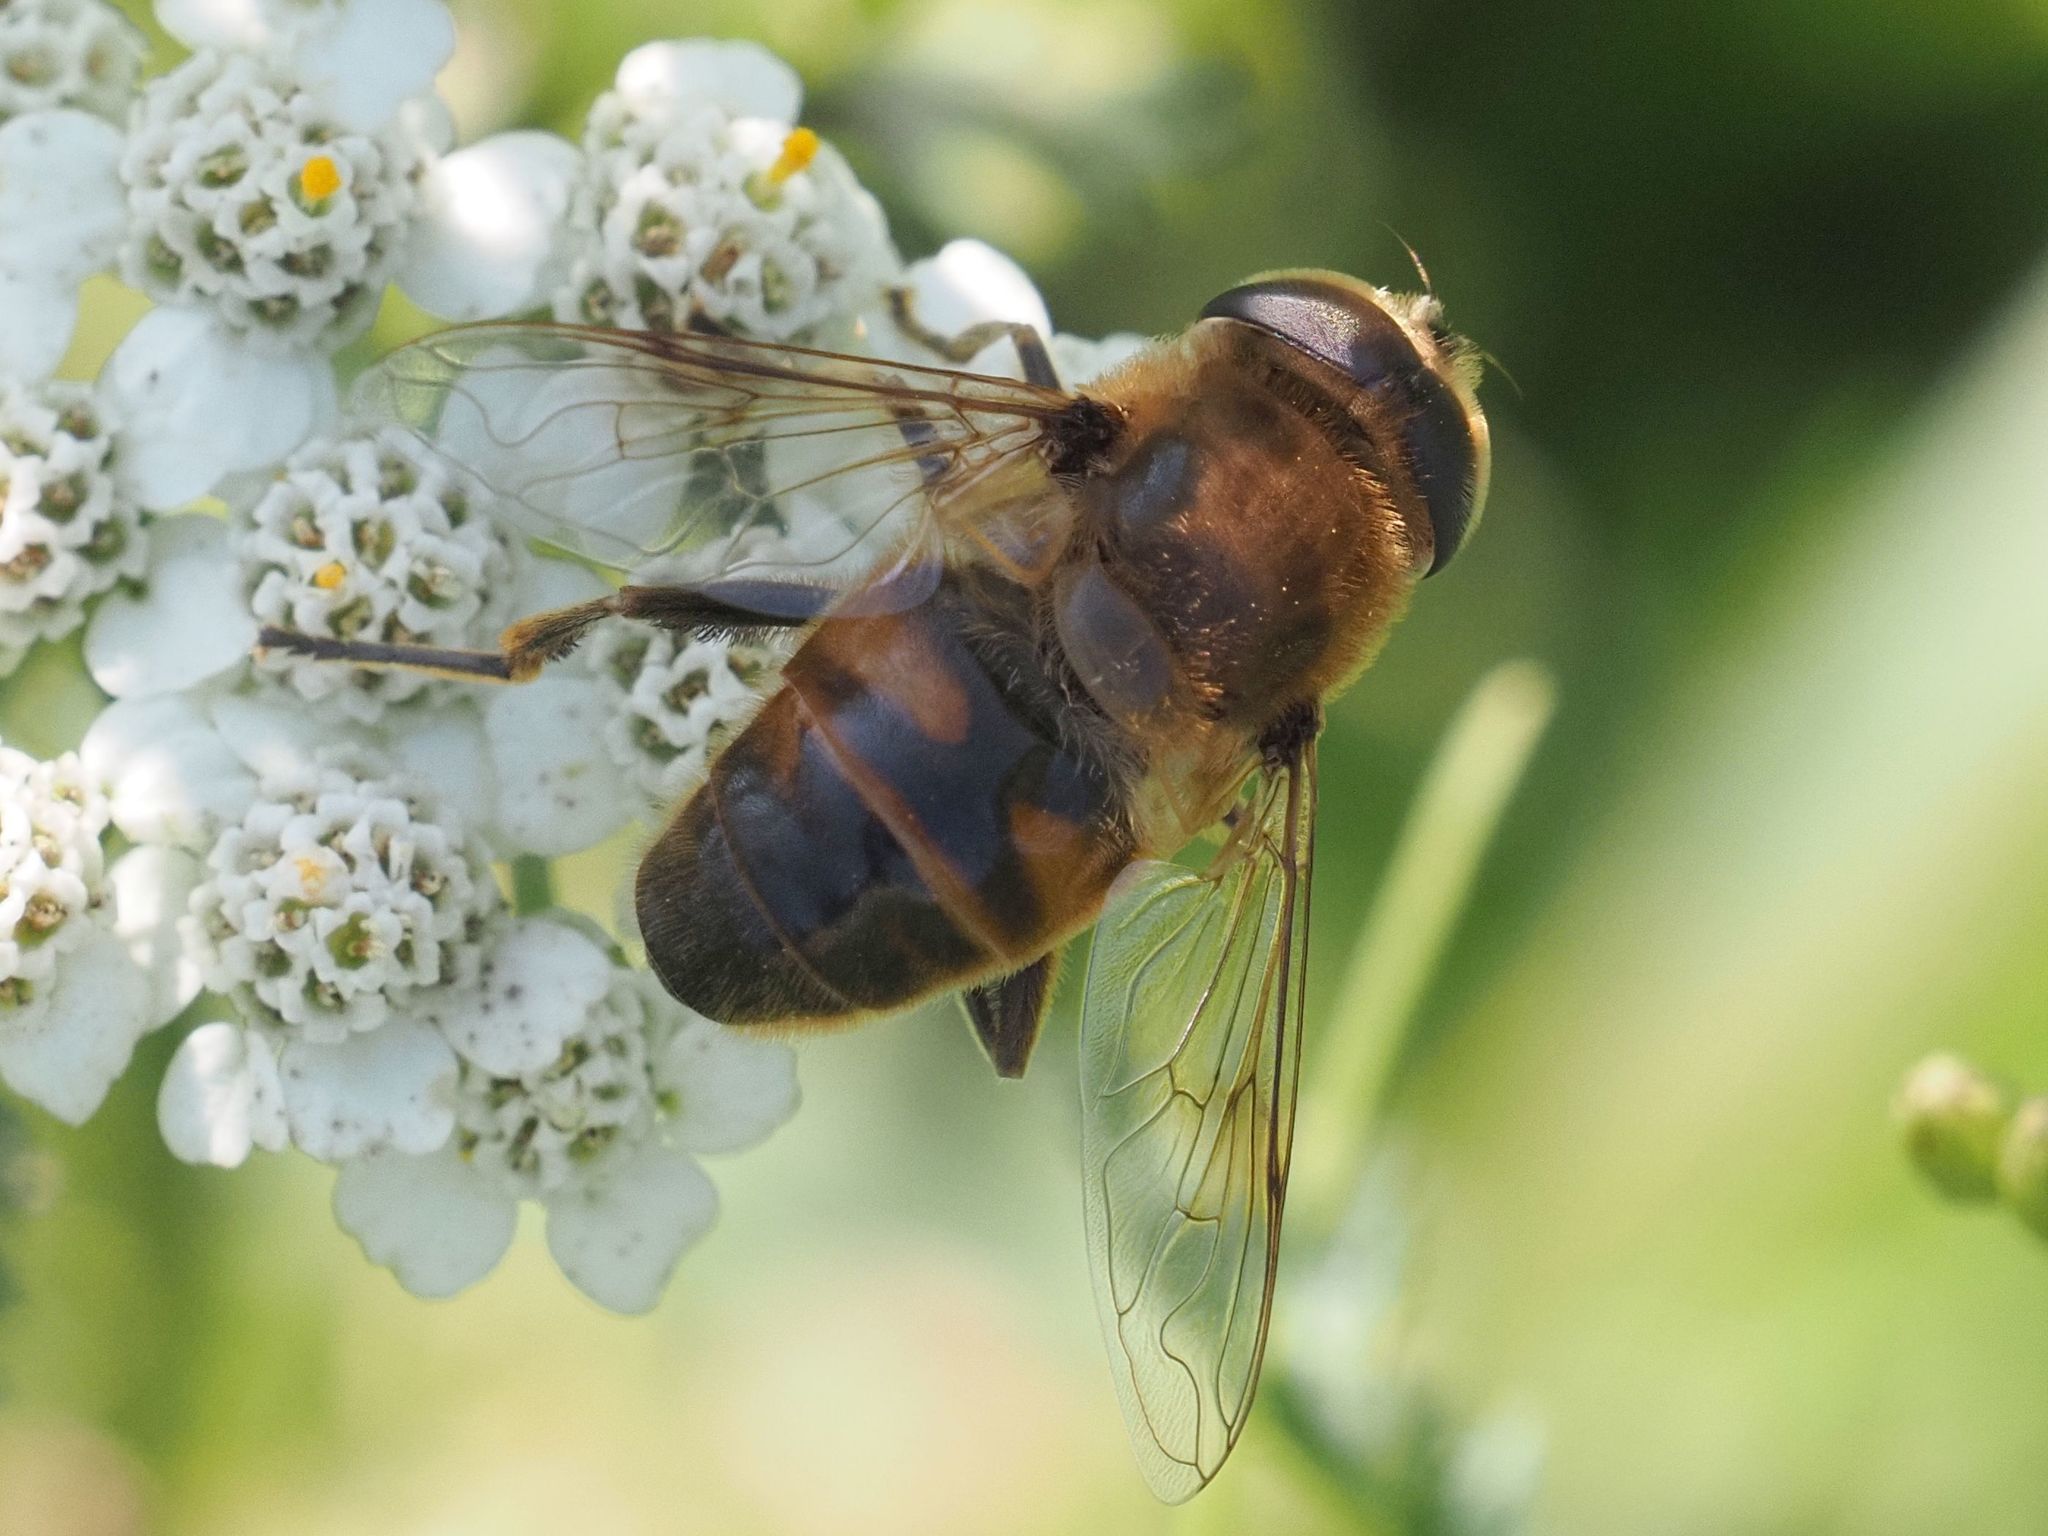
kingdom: Animalia
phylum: Arthropoda
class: Insecta
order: Diptera
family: Syrphidae
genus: Eristalis
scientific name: Eristalis tenax
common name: Drone fly
